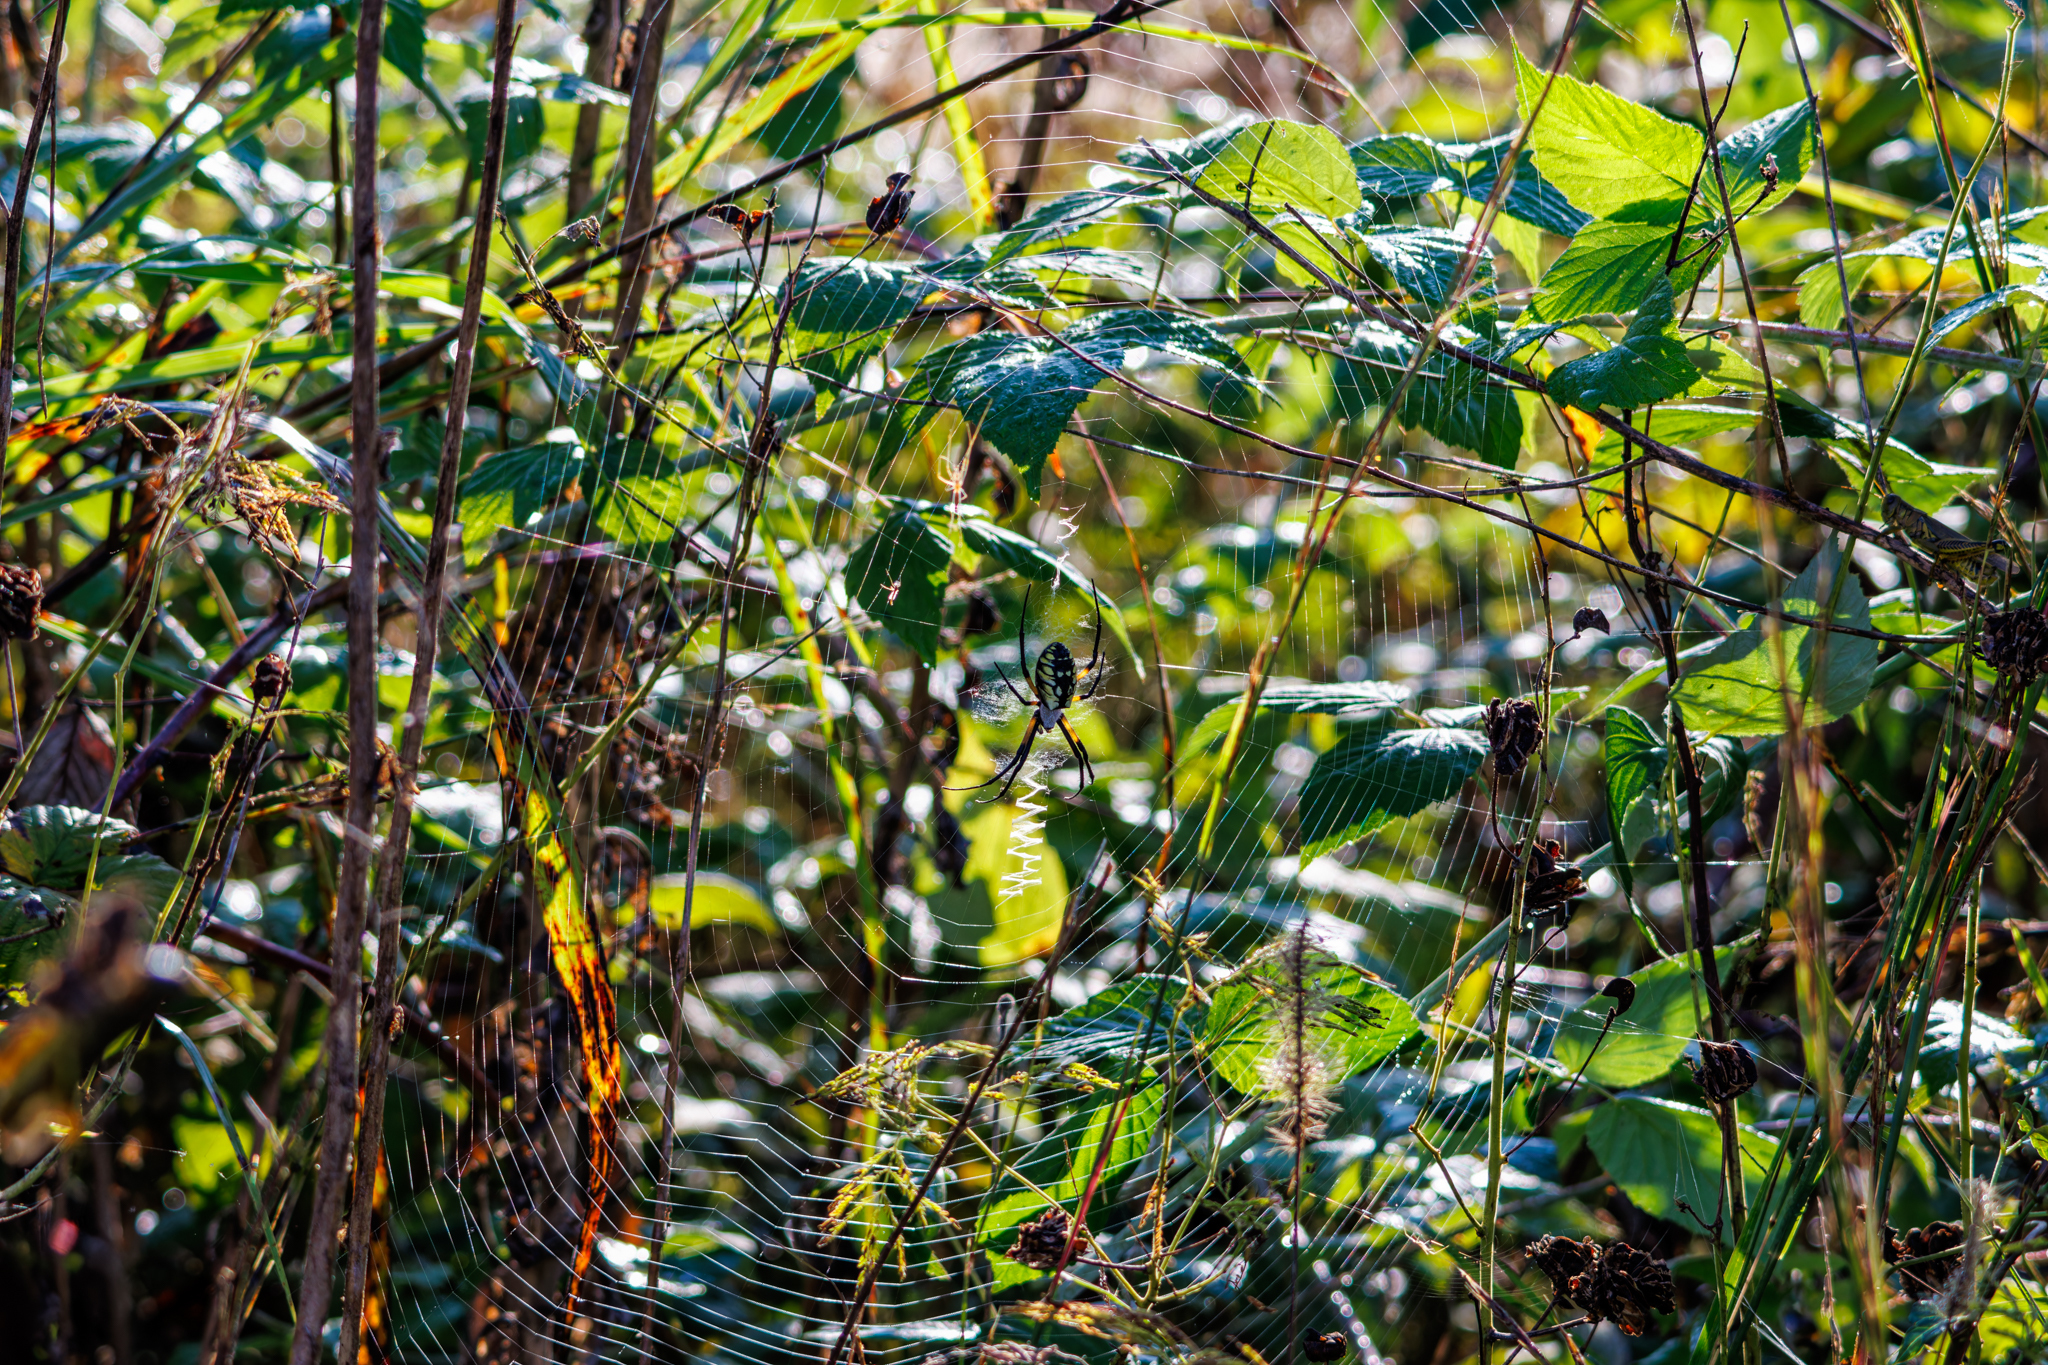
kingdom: Animalia
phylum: Arthropoda
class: Arachnida
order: Araneae
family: Araneidae
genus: Argiope
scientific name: Argiope aurantia
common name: Orb weavers
